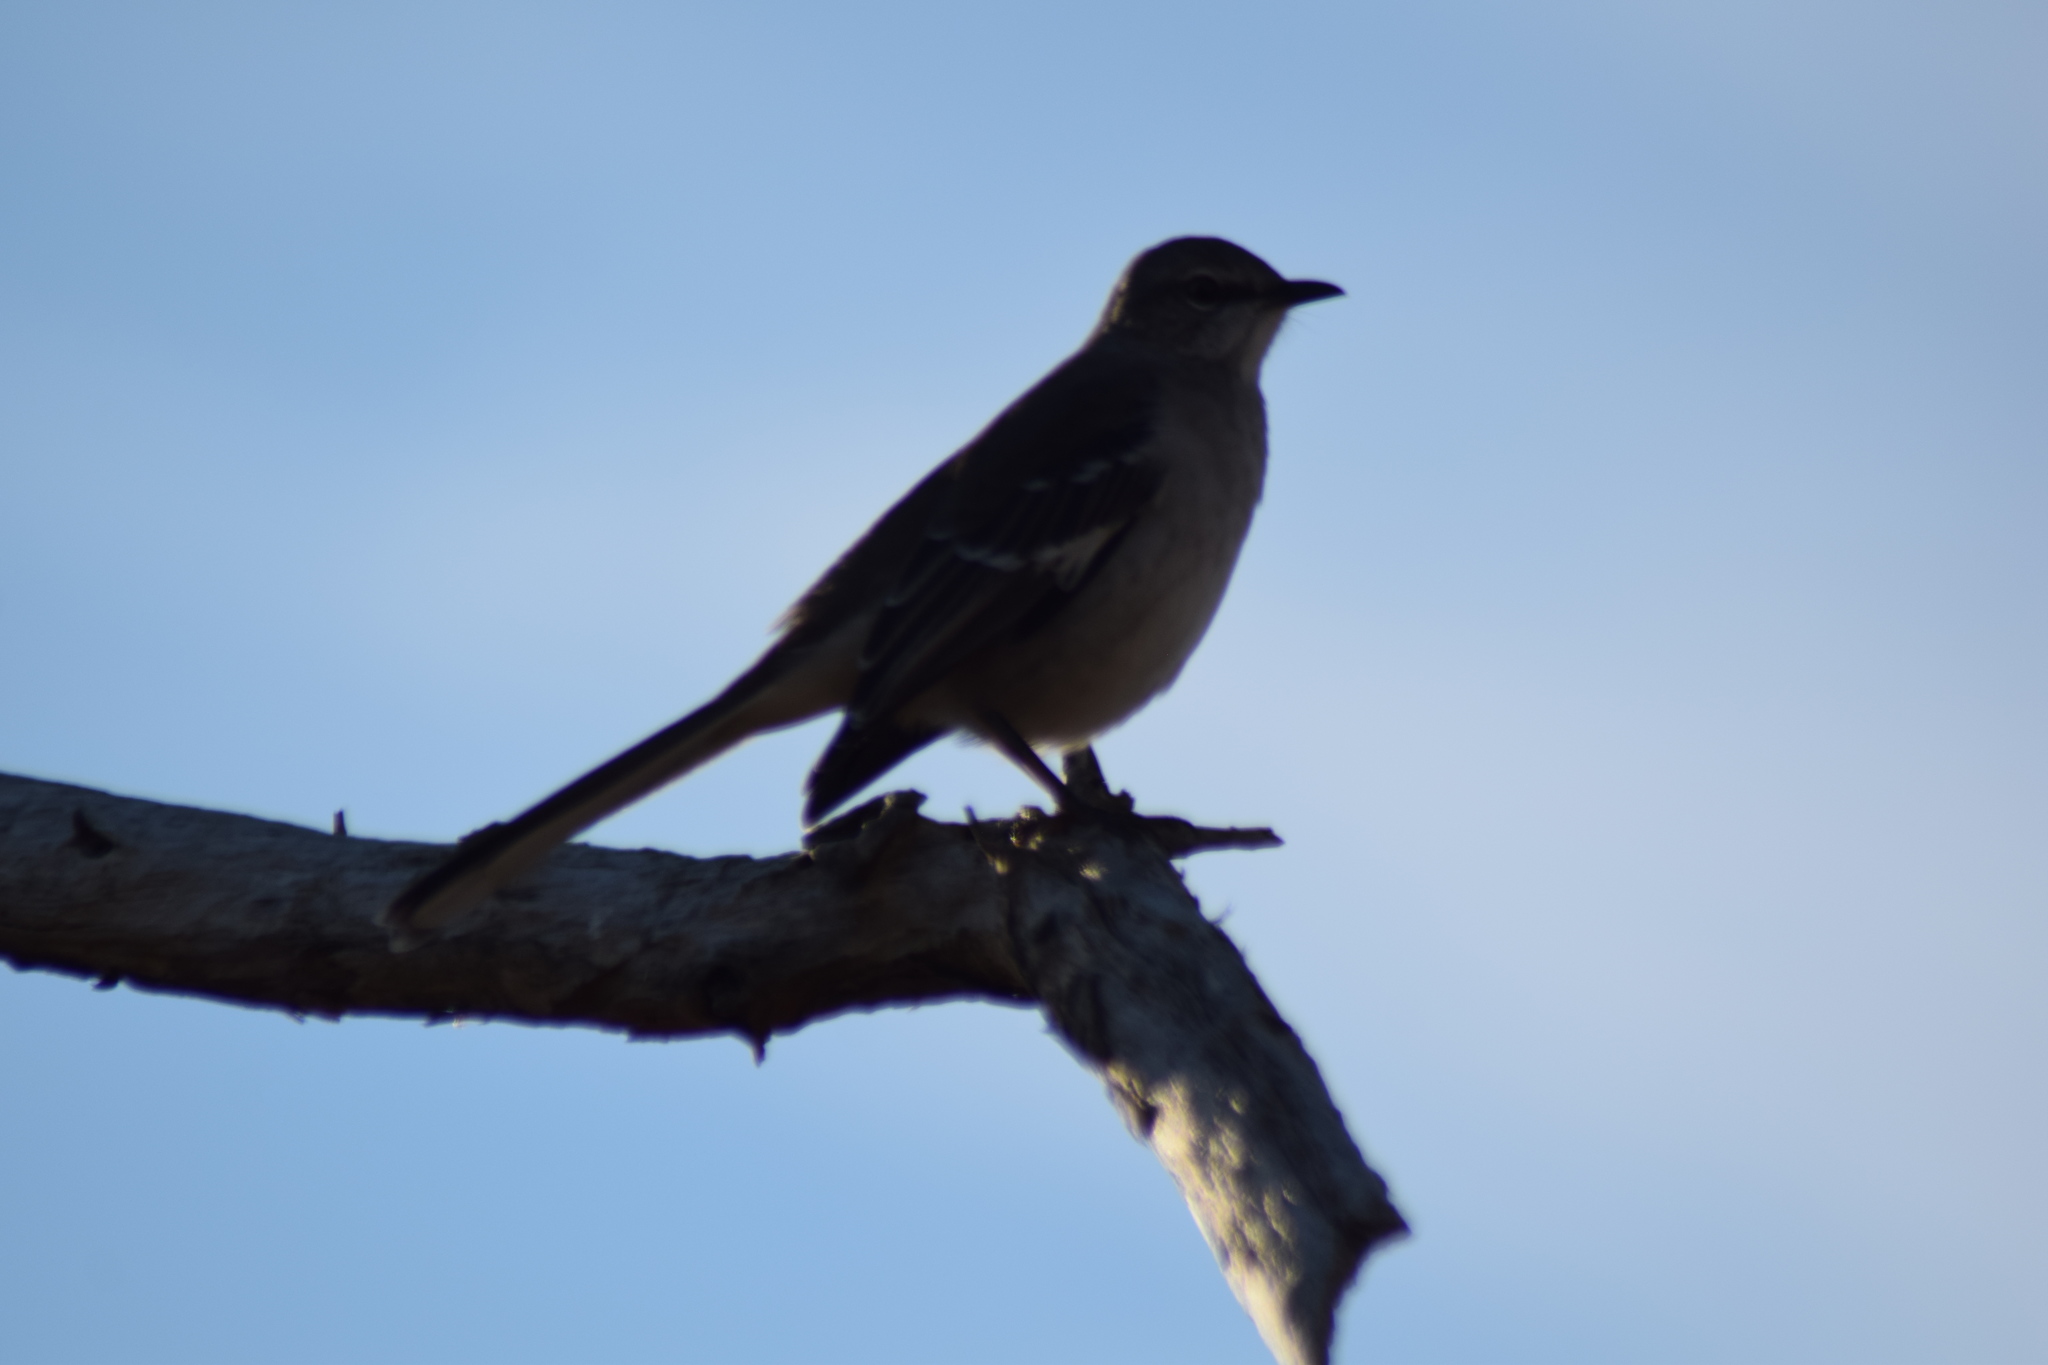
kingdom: Animalia
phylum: Chordata
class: Aves
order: Passeriformes
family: Mimidae
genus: Mimus
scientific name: Mimus polyglottos
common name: Northern mockingbird
